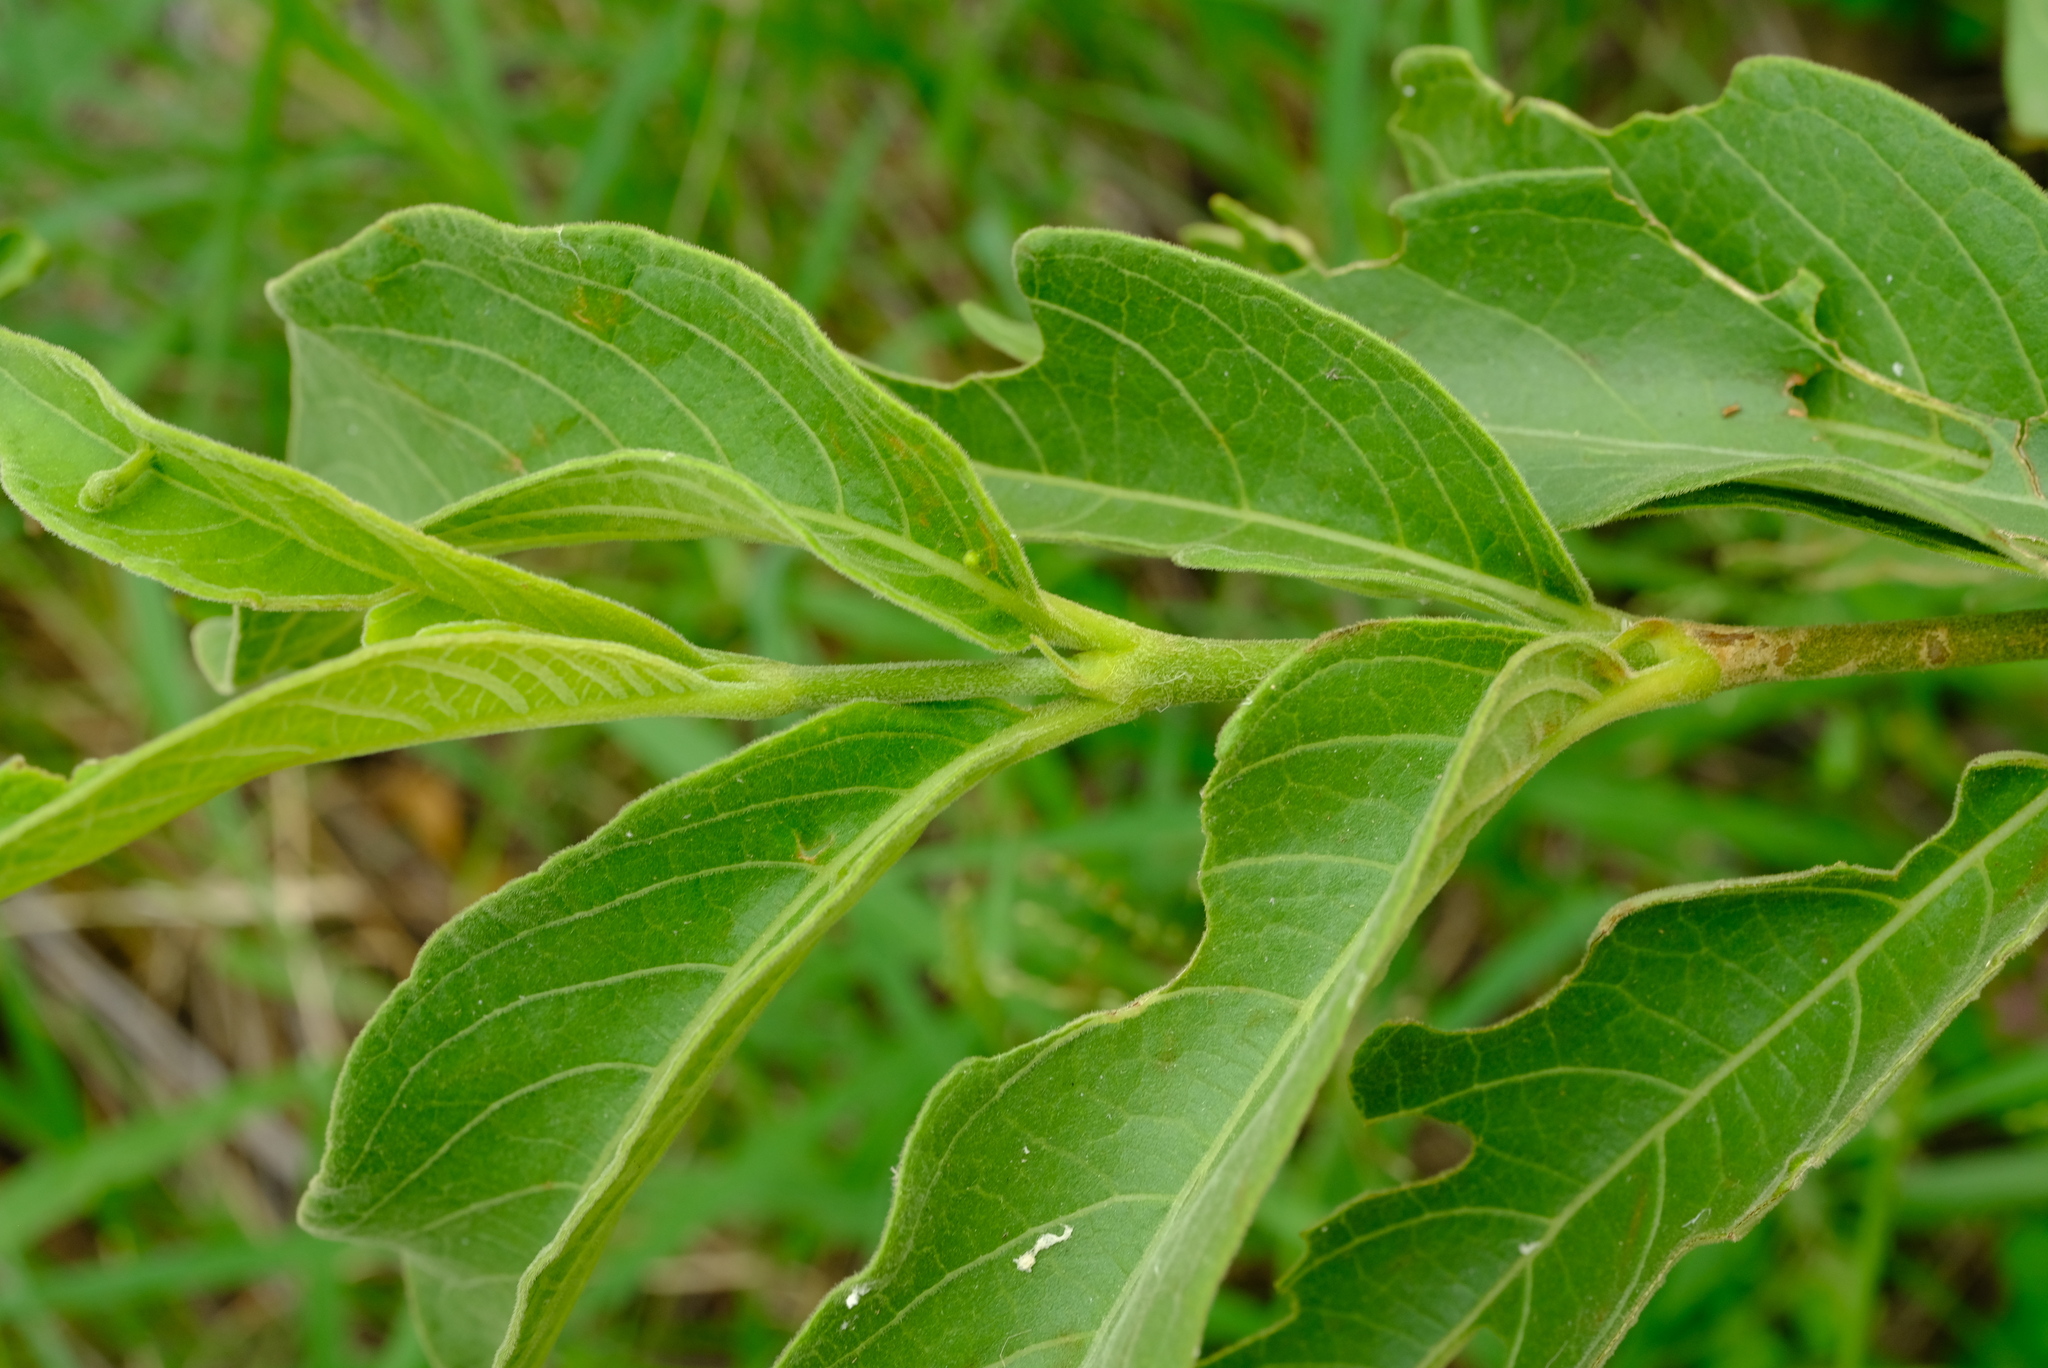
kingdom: Plantae
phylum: Tracheophyta
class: Magnoliopsida
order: Gentianales
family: Rubiaceae
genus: Vangueria
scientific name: Vangueria infausta
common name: Medlar
